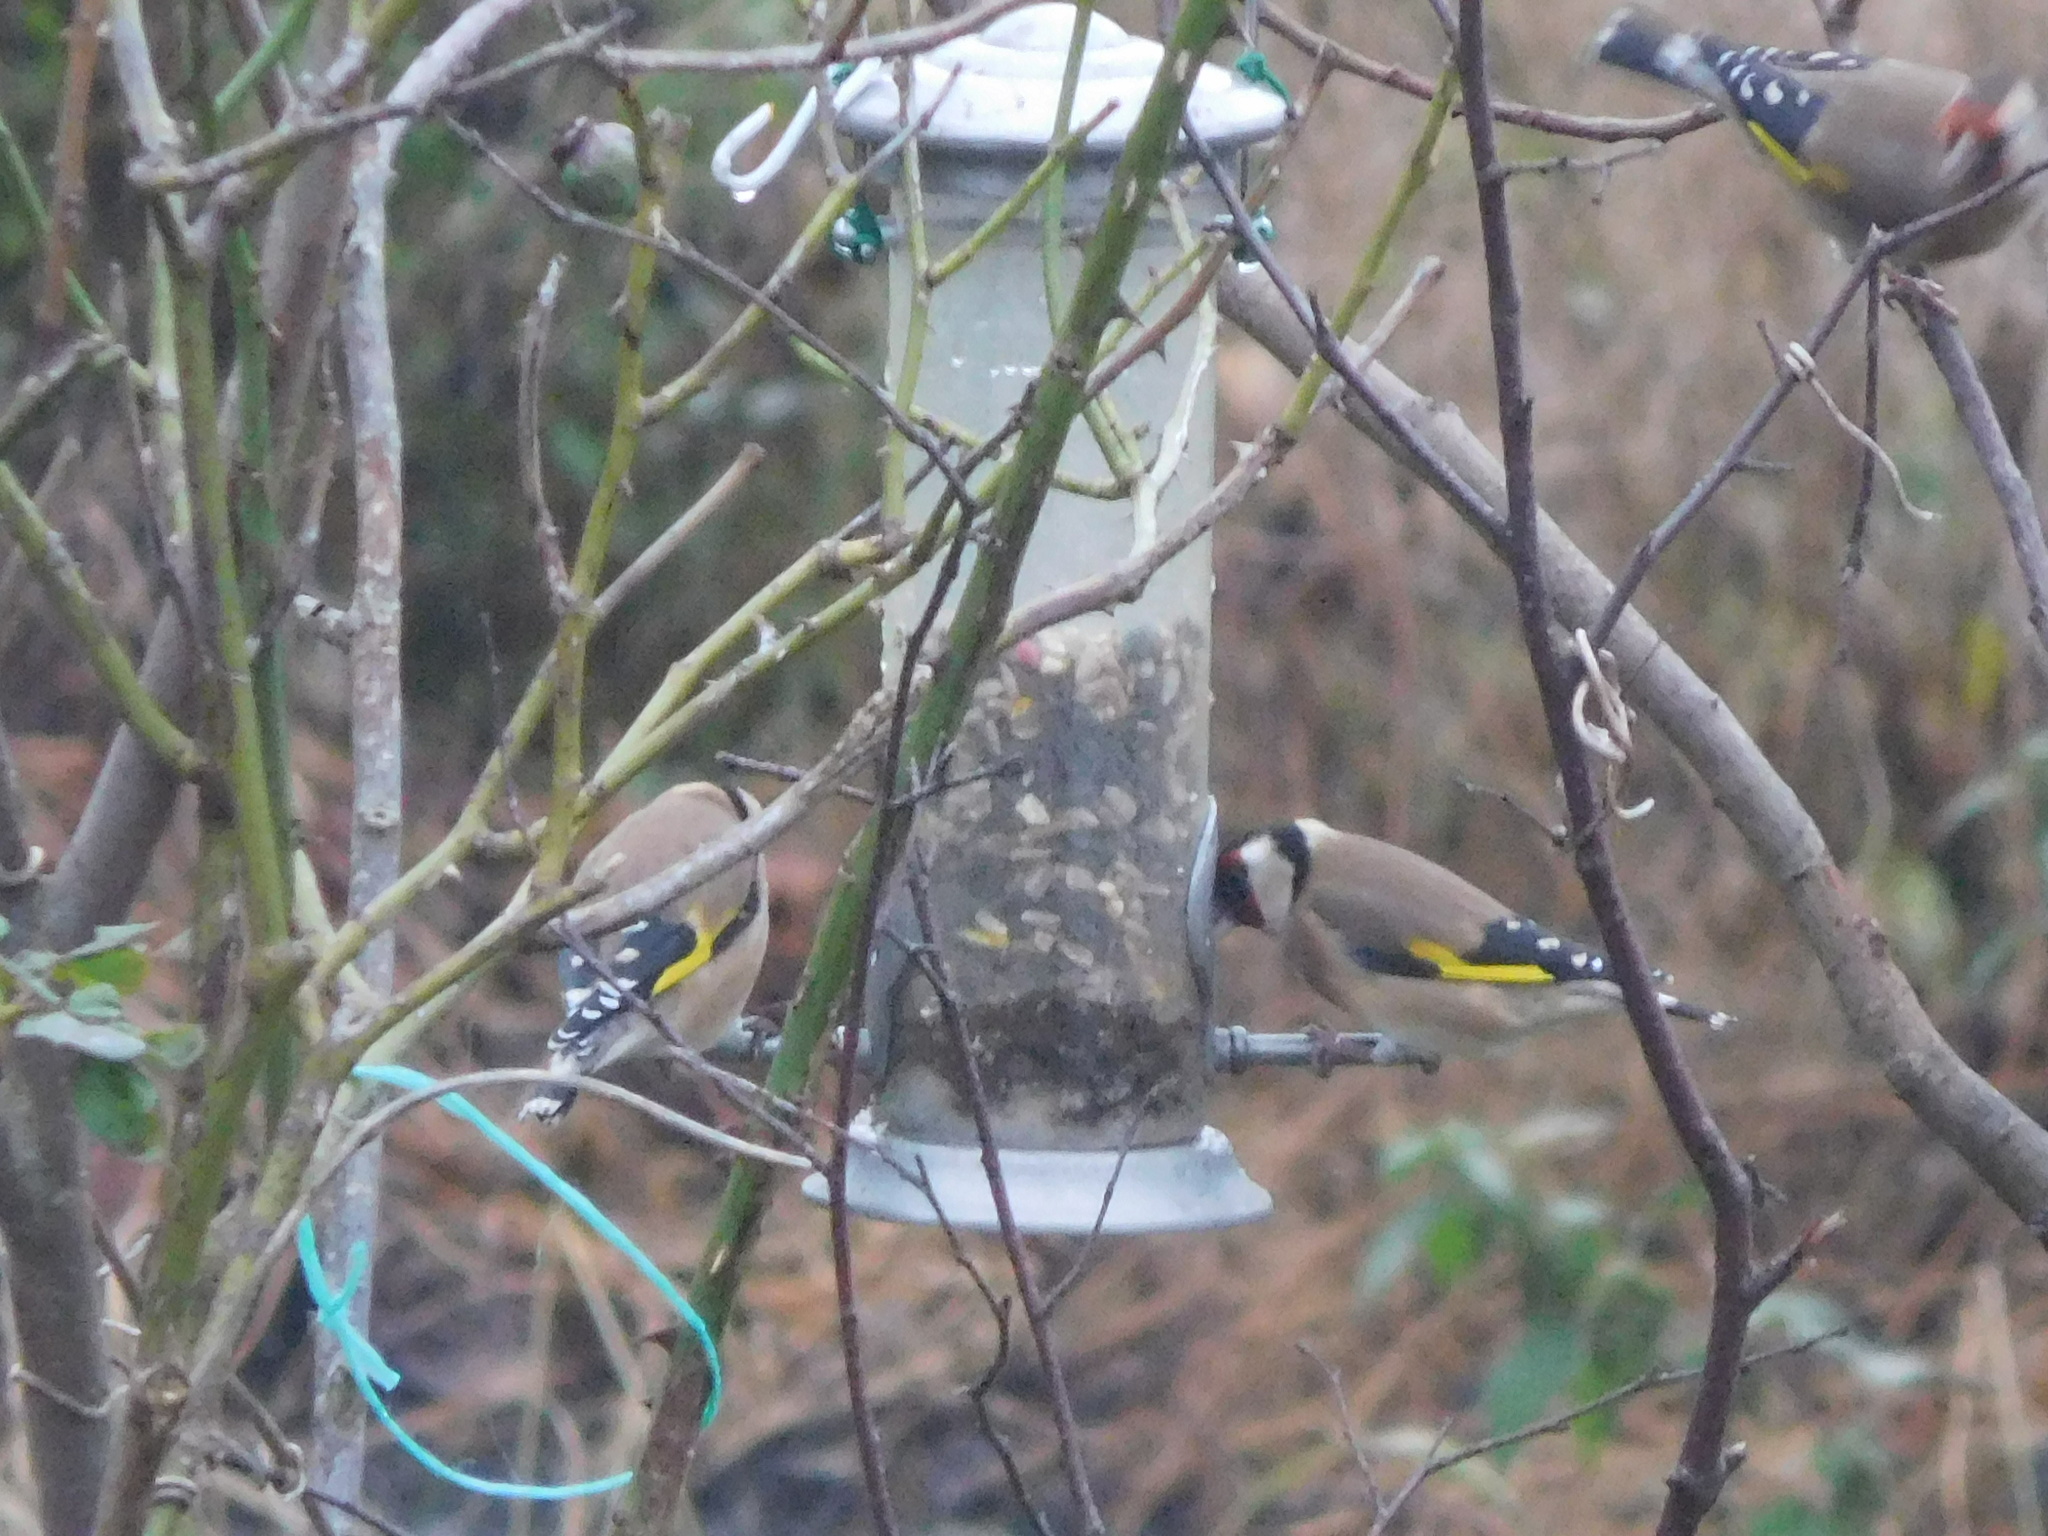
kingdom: Animalia
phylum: Chordata
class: Aves
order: Passeriformes
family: Fringillidae
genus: Carduelis
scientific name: Carduelis carduelis
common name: European goldfinch
